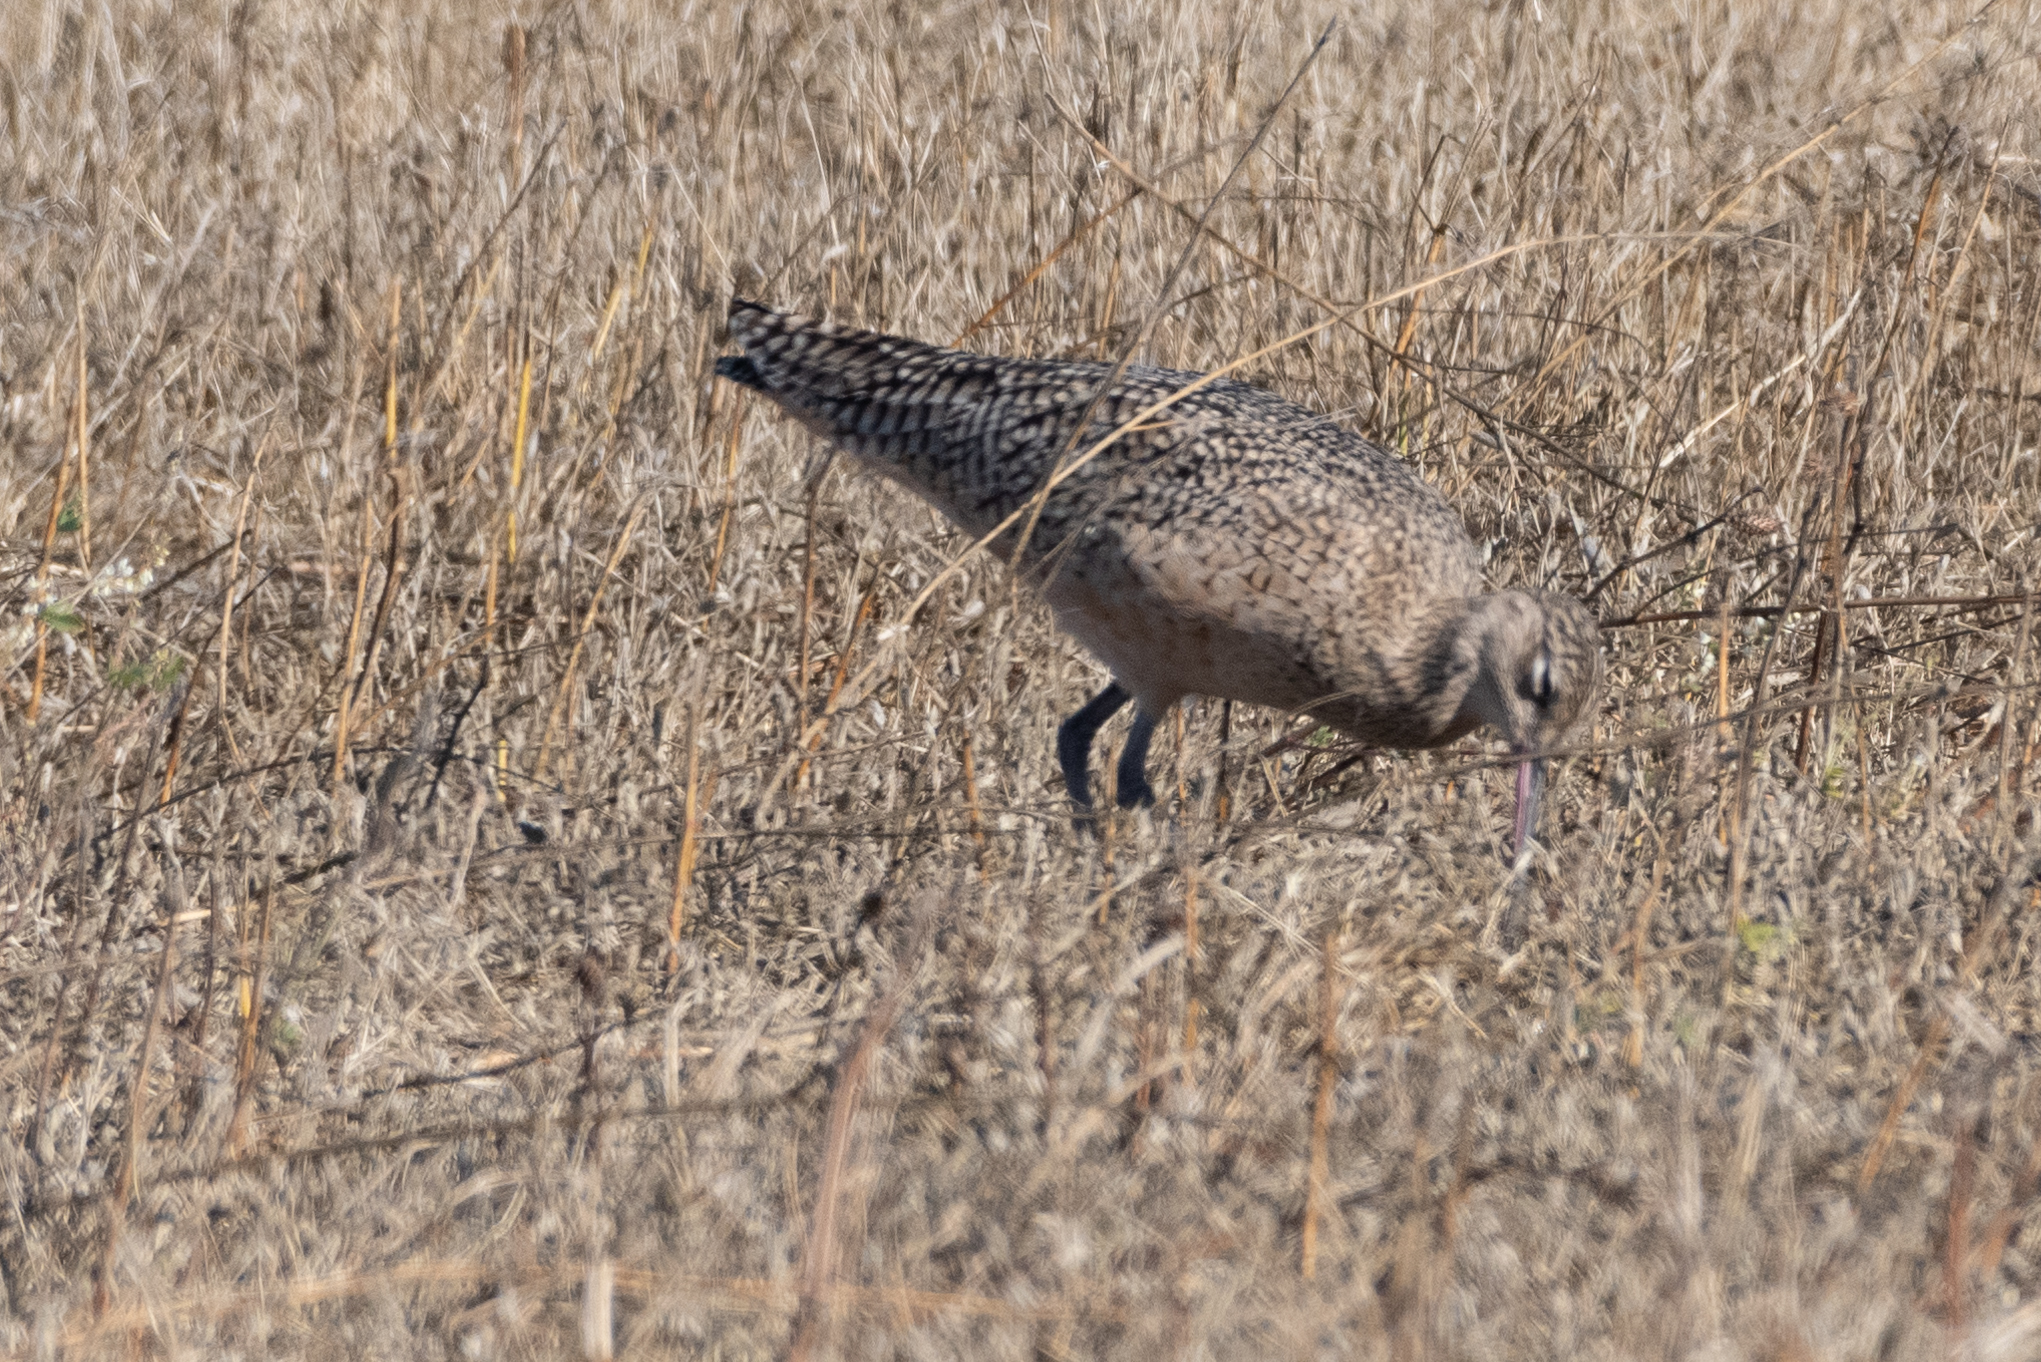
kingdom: Animalia
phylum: Chordata
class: Aves
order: Charadriiformes
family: Scolopacidae
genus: Numenius
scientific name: Numenius americanus
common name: Long-billed curlew
